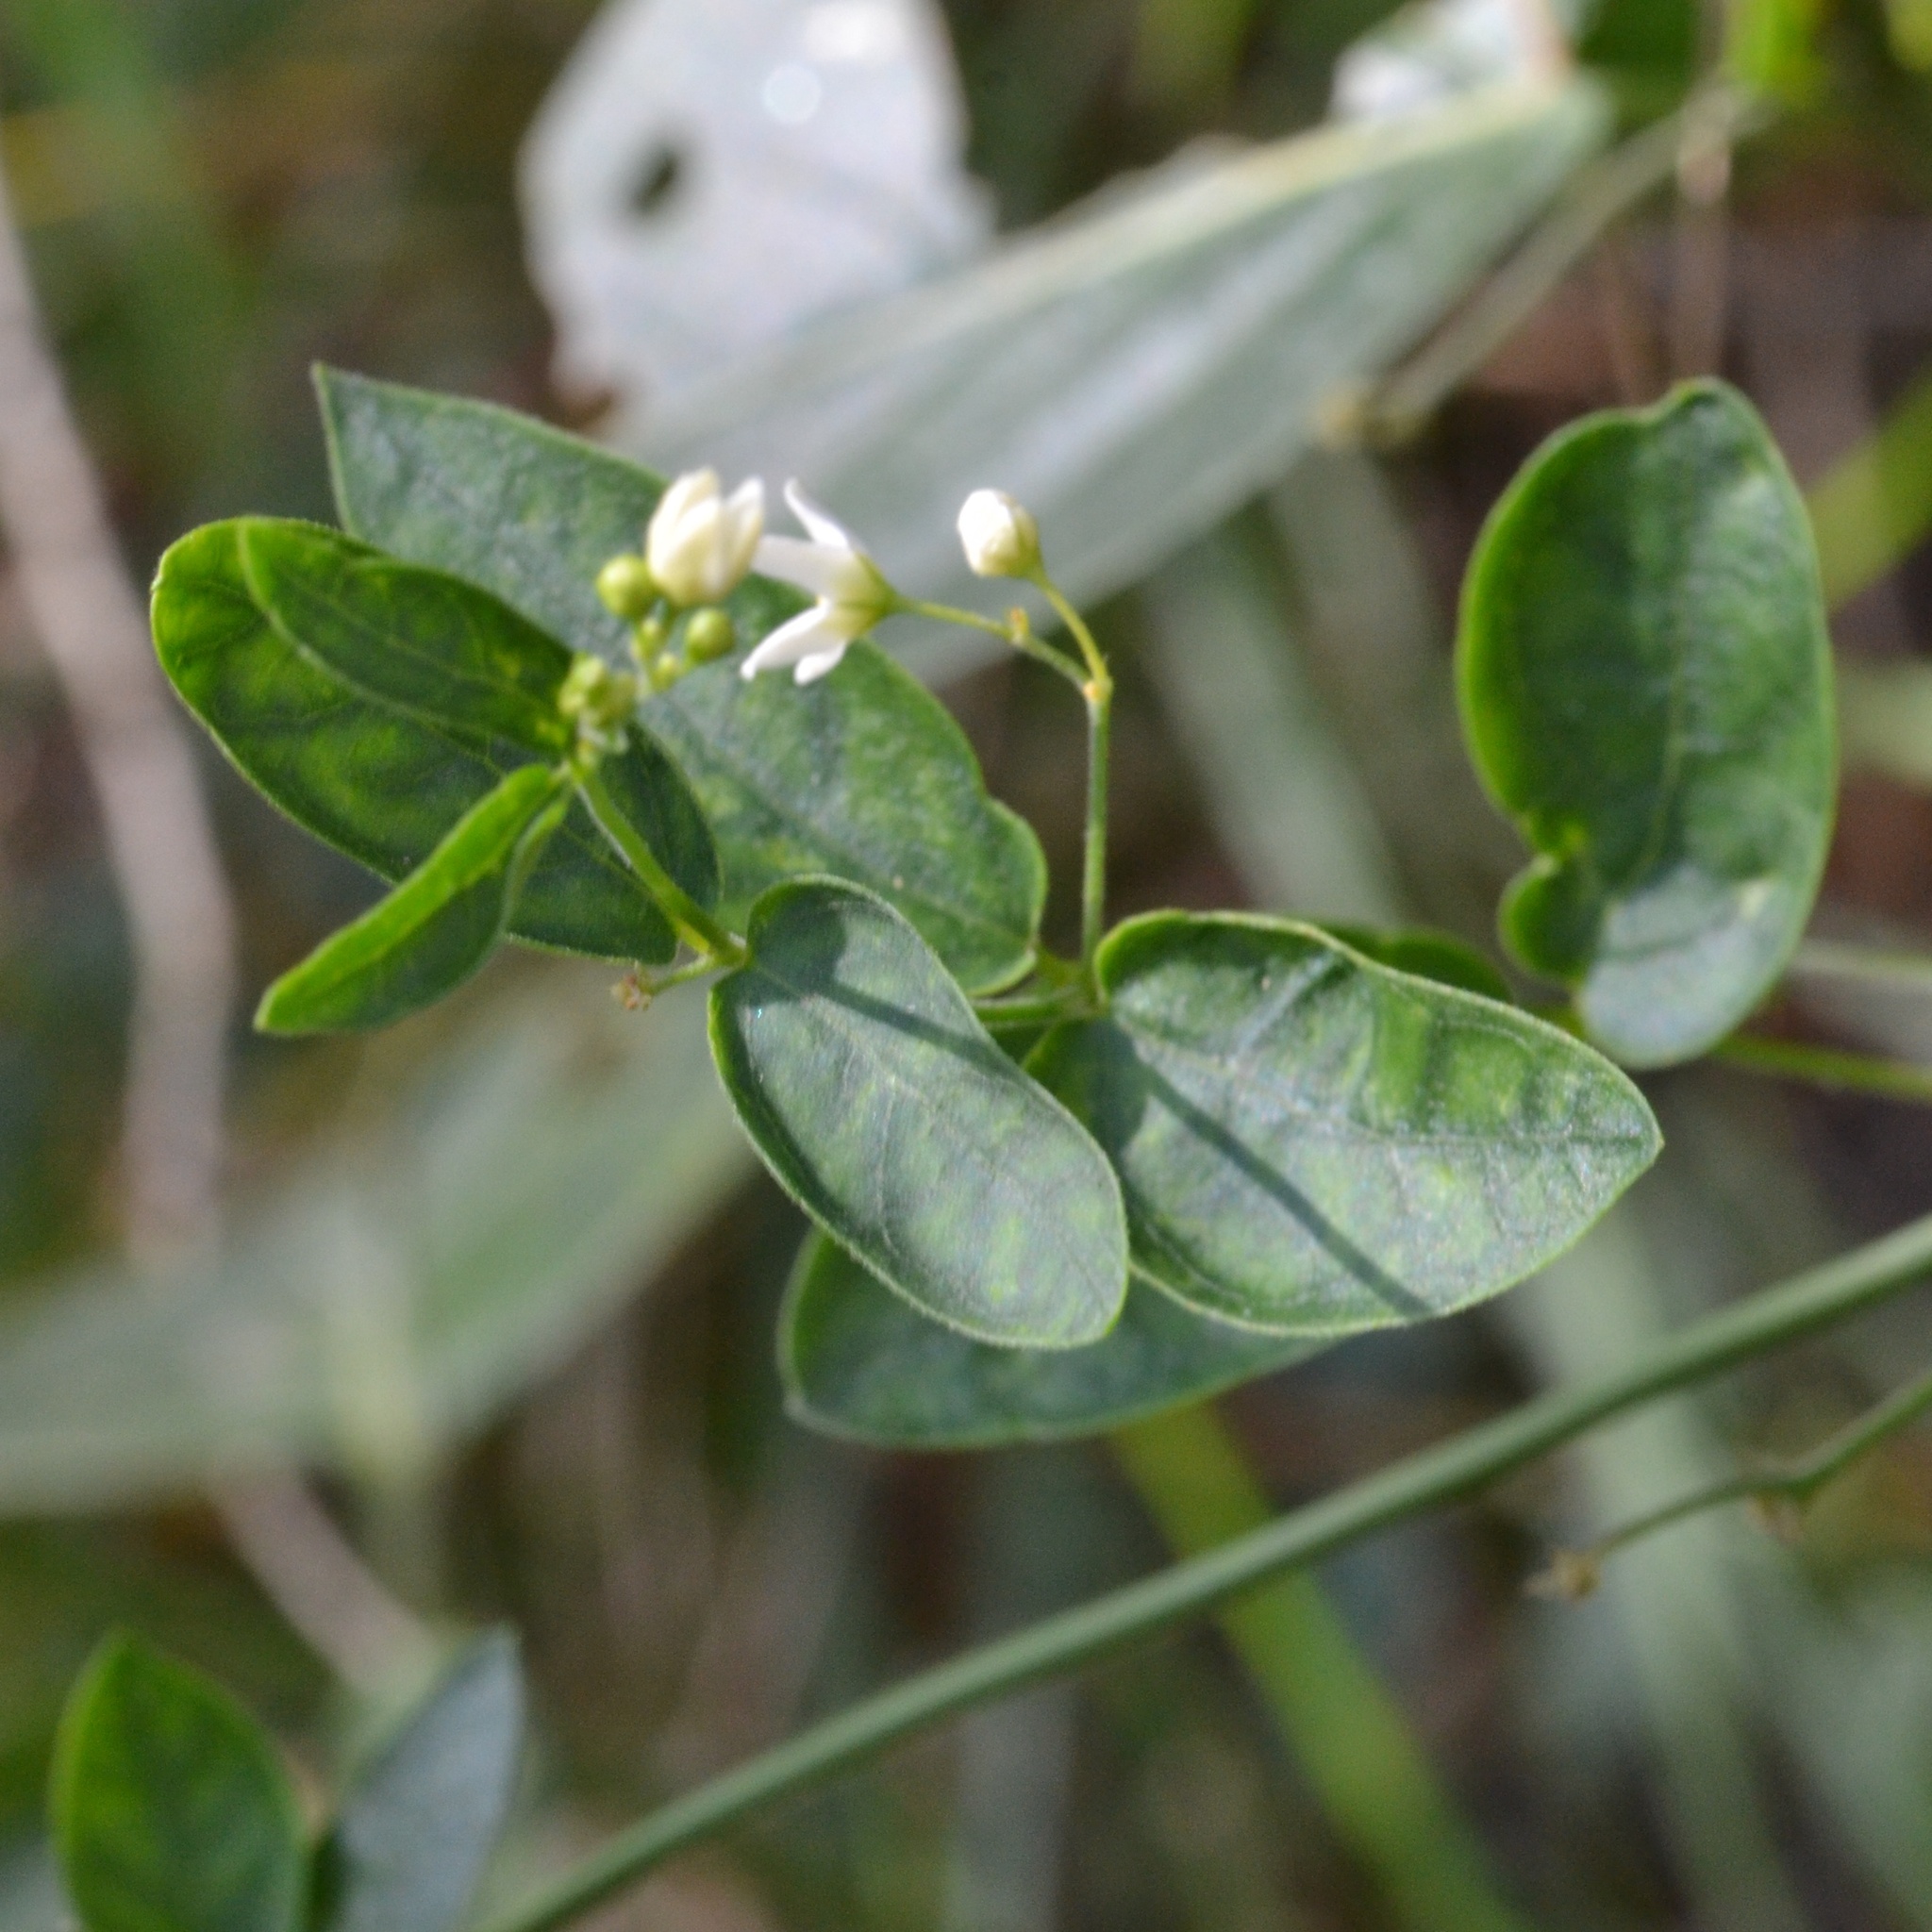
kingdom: Plantae
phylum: Tracheophyta
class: Magnoliopsida
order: Gentianales
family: Apocynaceae
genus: Vincetoxicum
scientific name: Vincetoxicum hirundinaria
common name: White swallowwort
